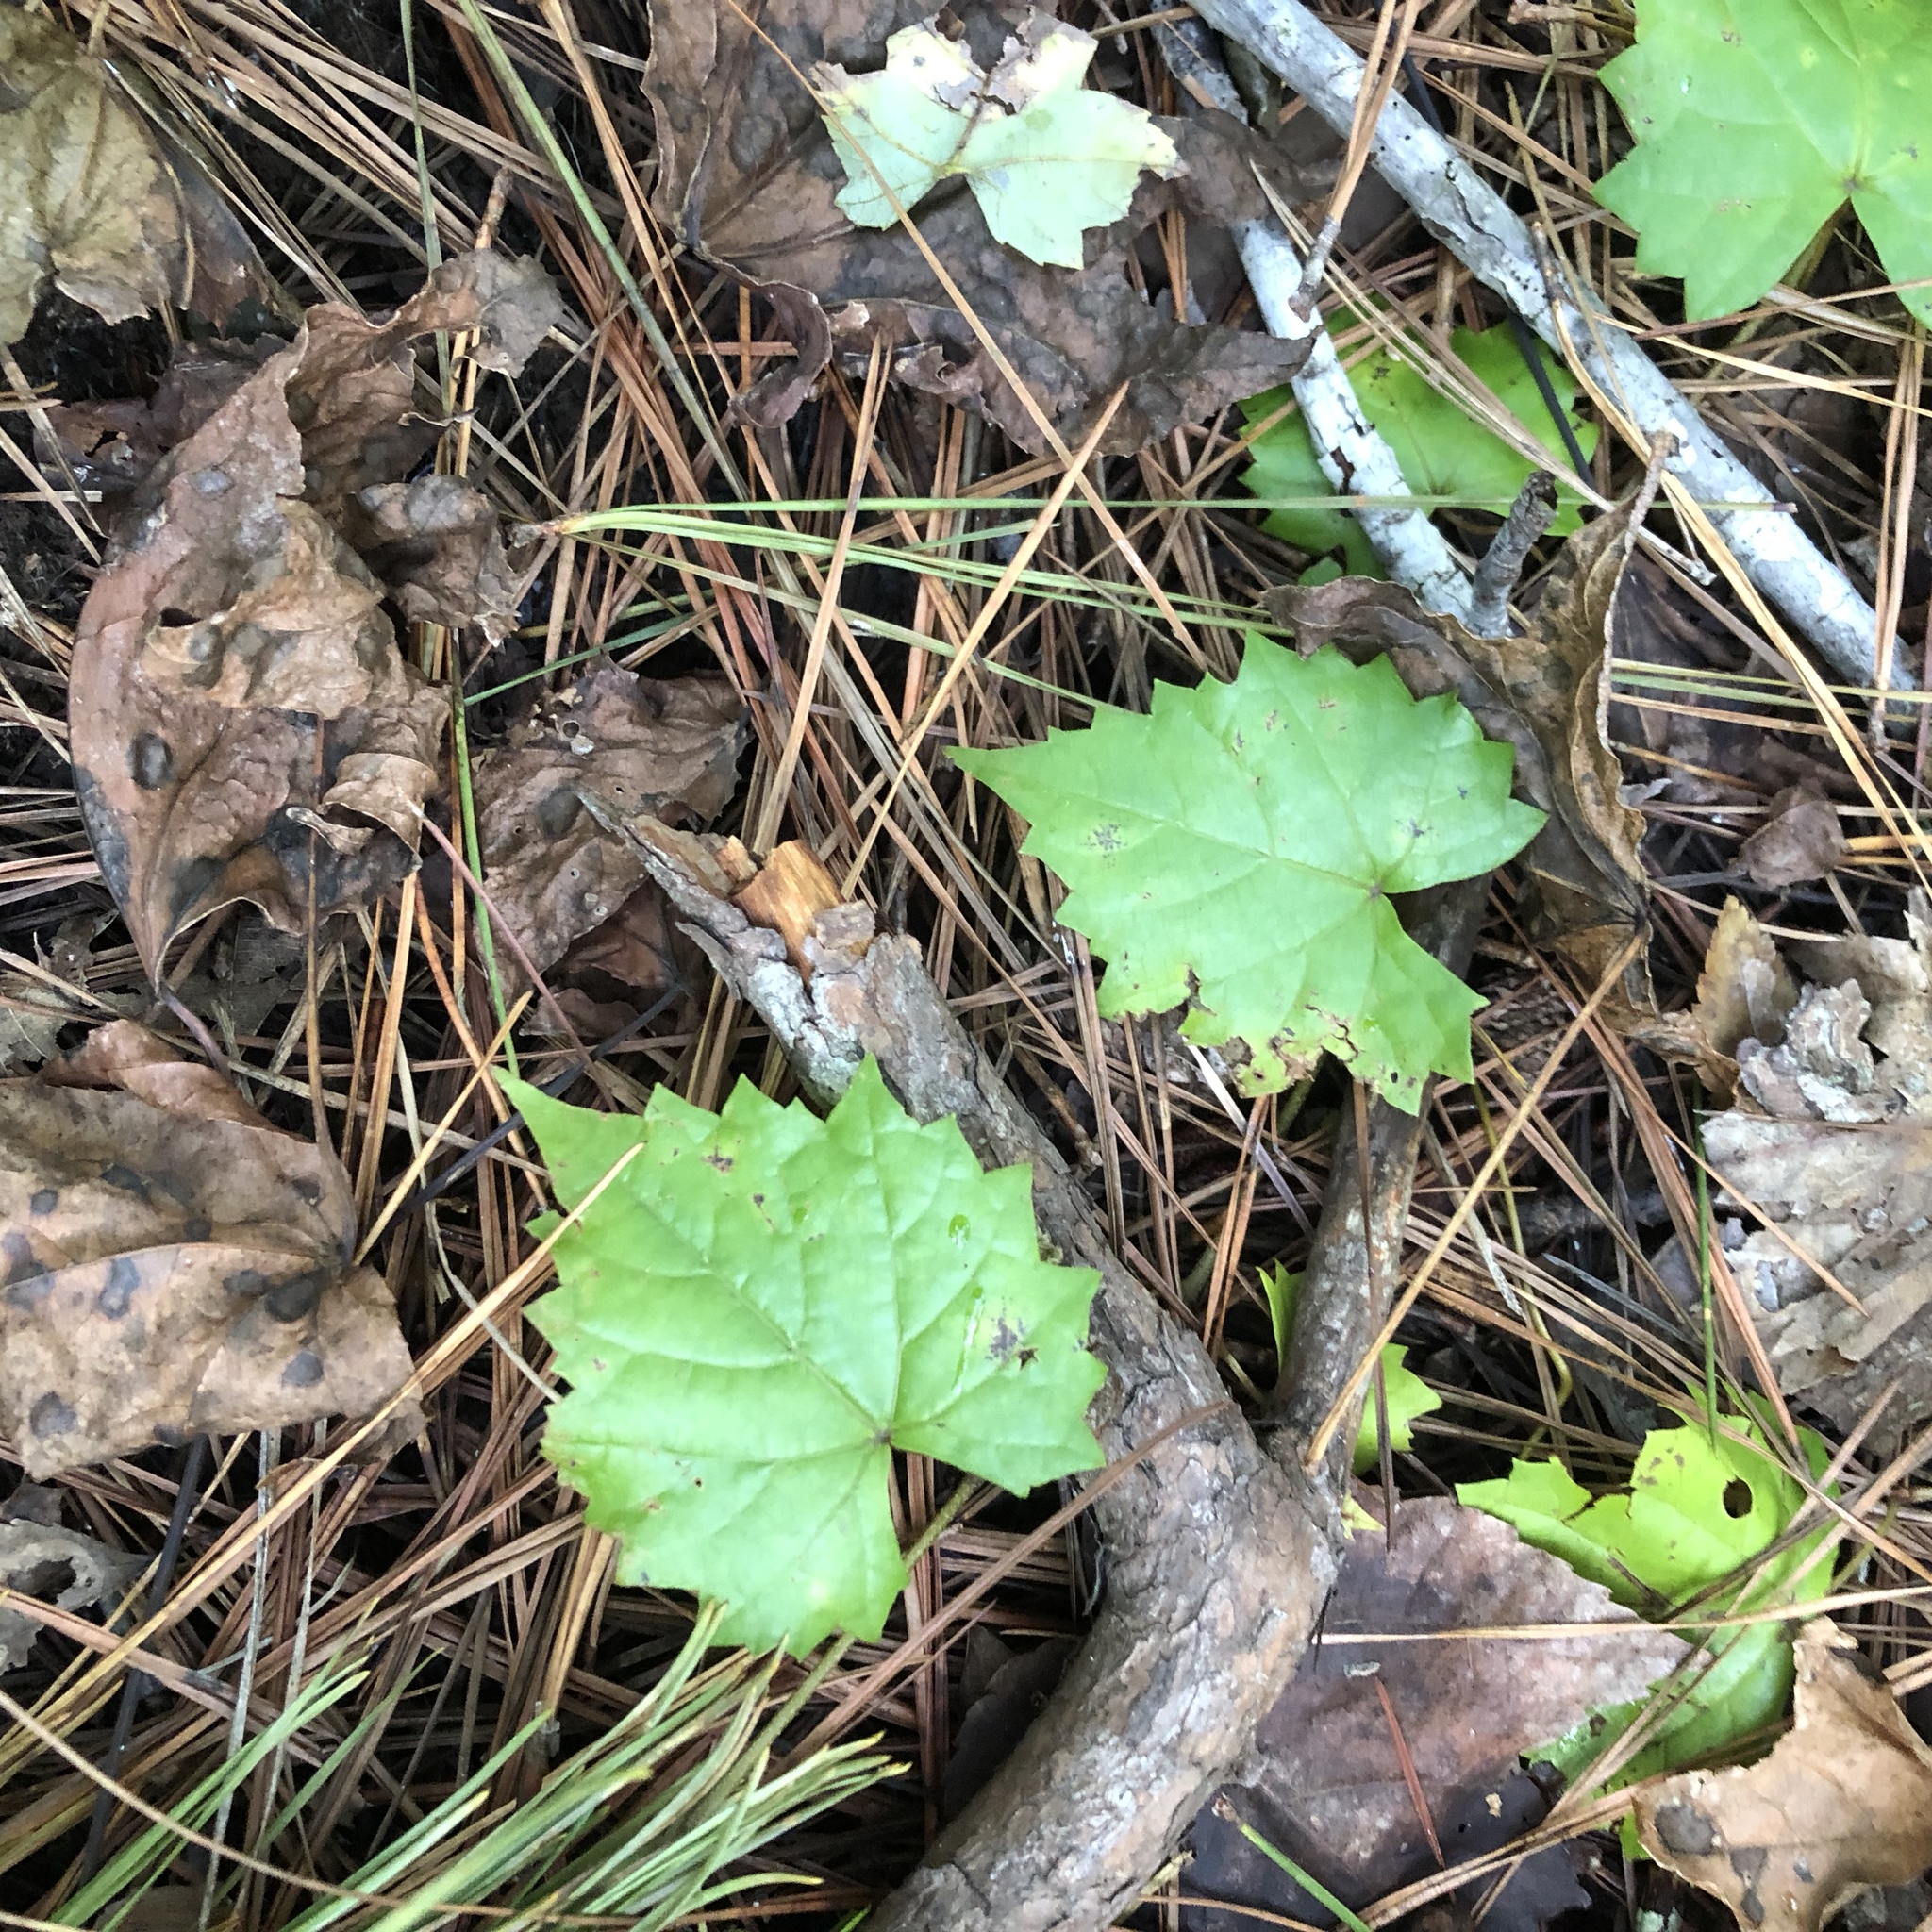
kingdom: Plantae
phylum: Tracheophyta
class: Magnoliopsida
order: Vitales
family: Vitaceae
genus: Vitis
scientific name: Vitis rotundifolia
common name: Muscadine grape
